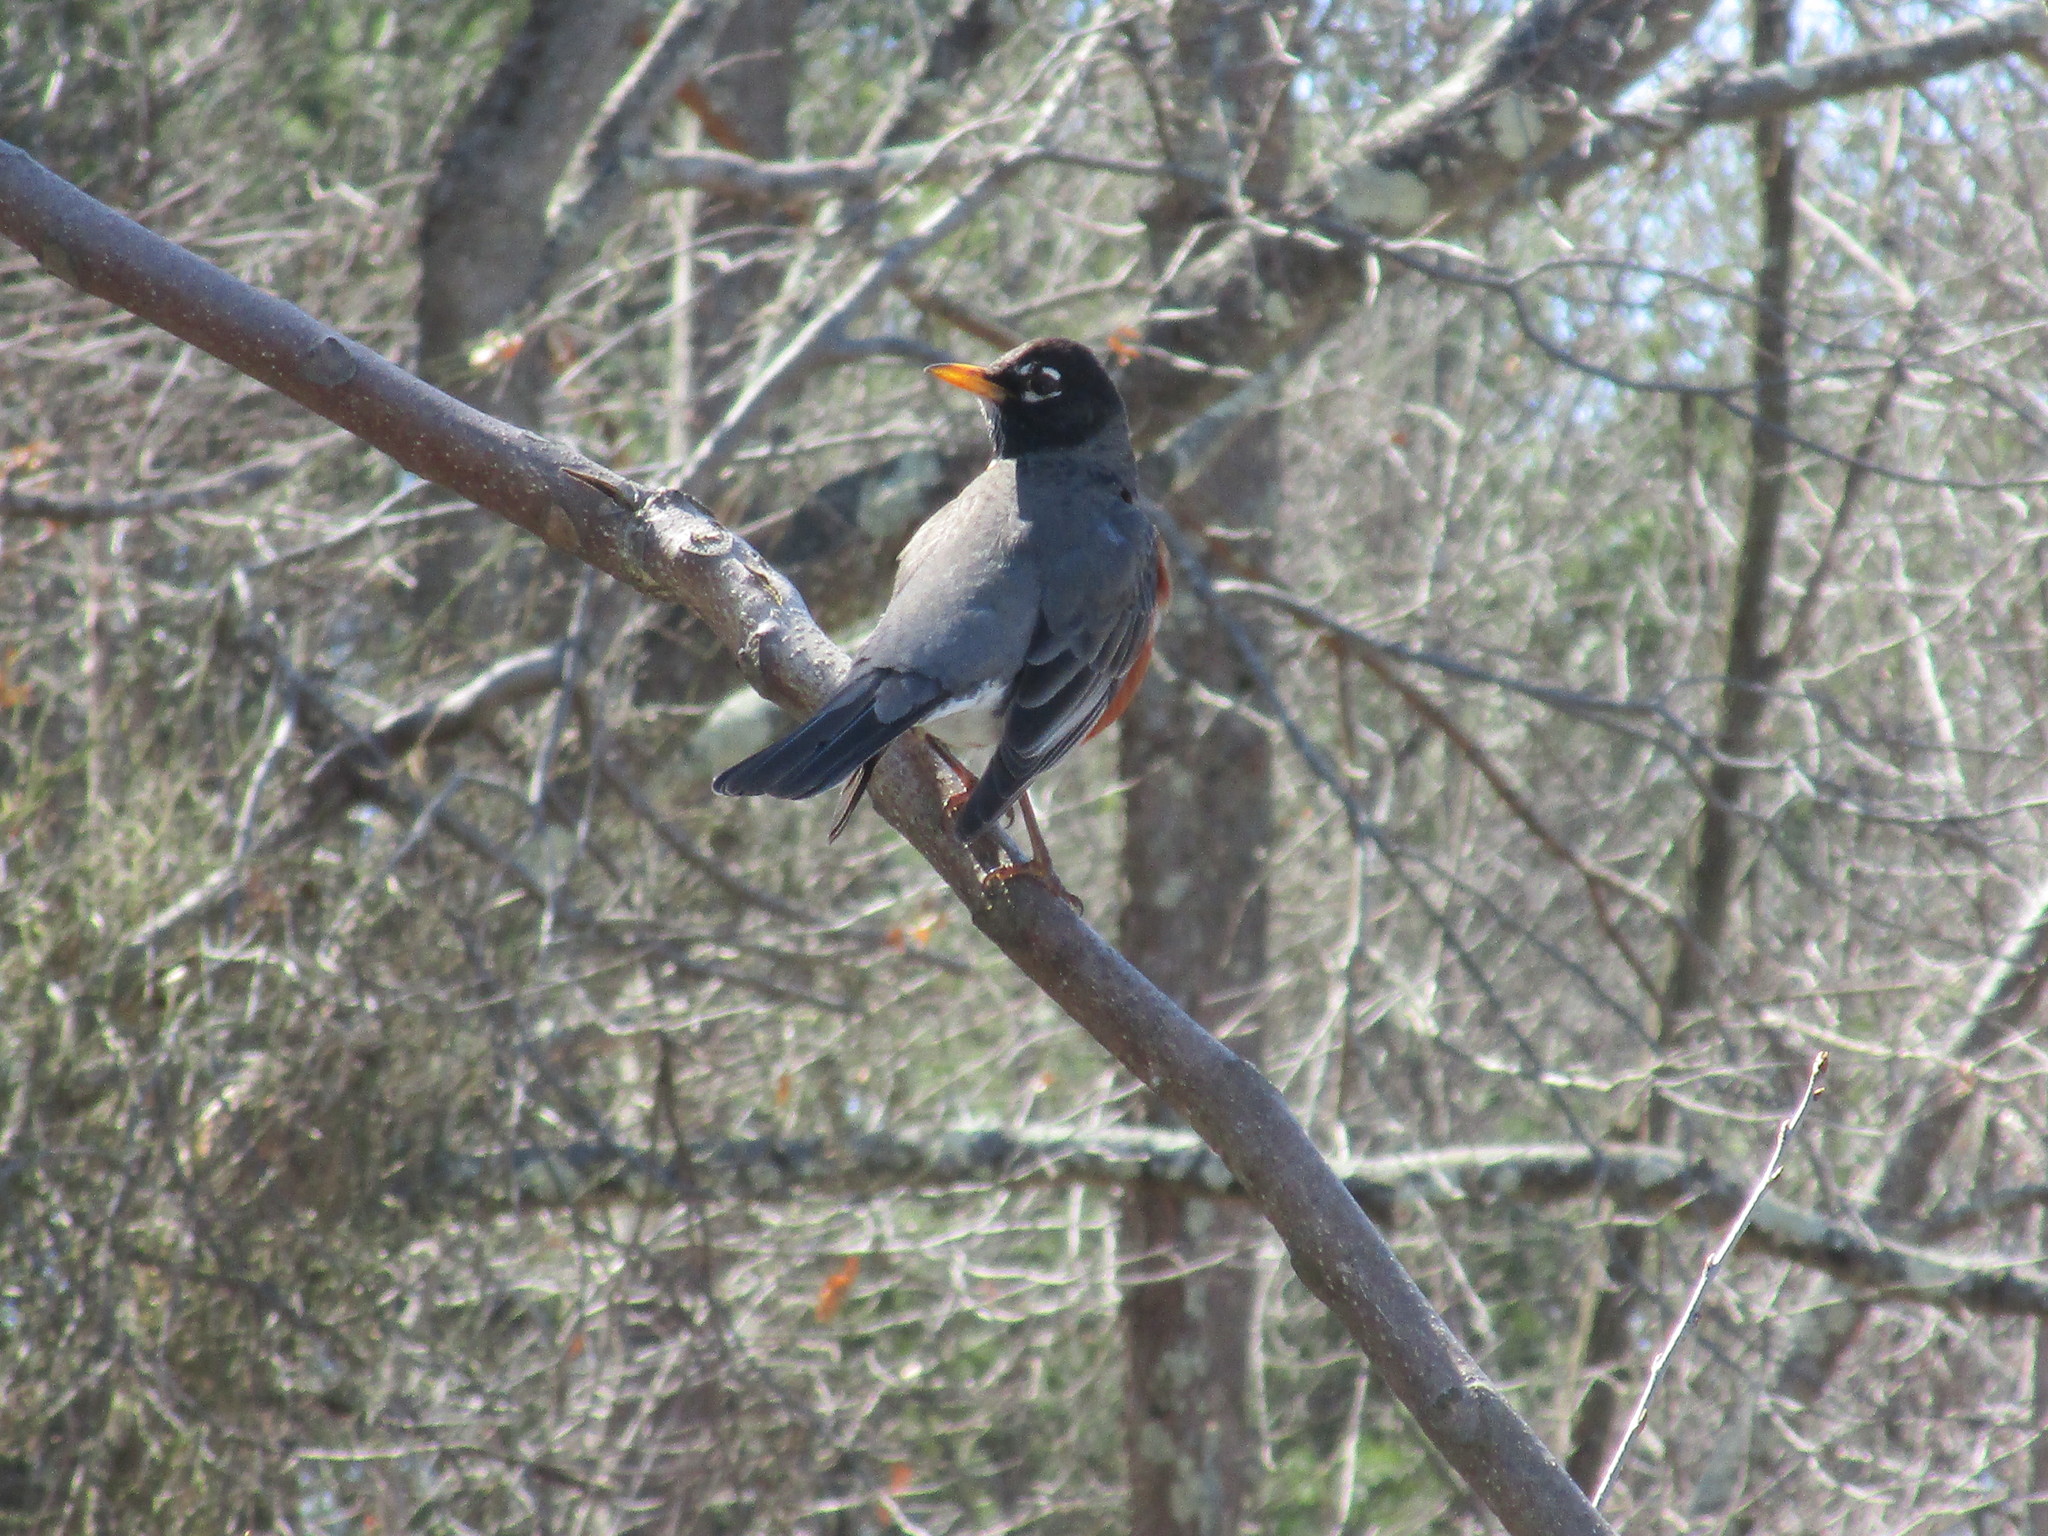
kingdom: Animalia
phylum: Chordata
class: Aves
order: Passeriformes
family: Turdidae
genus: Turdus
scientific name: Turdus migratorius
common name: American robin
